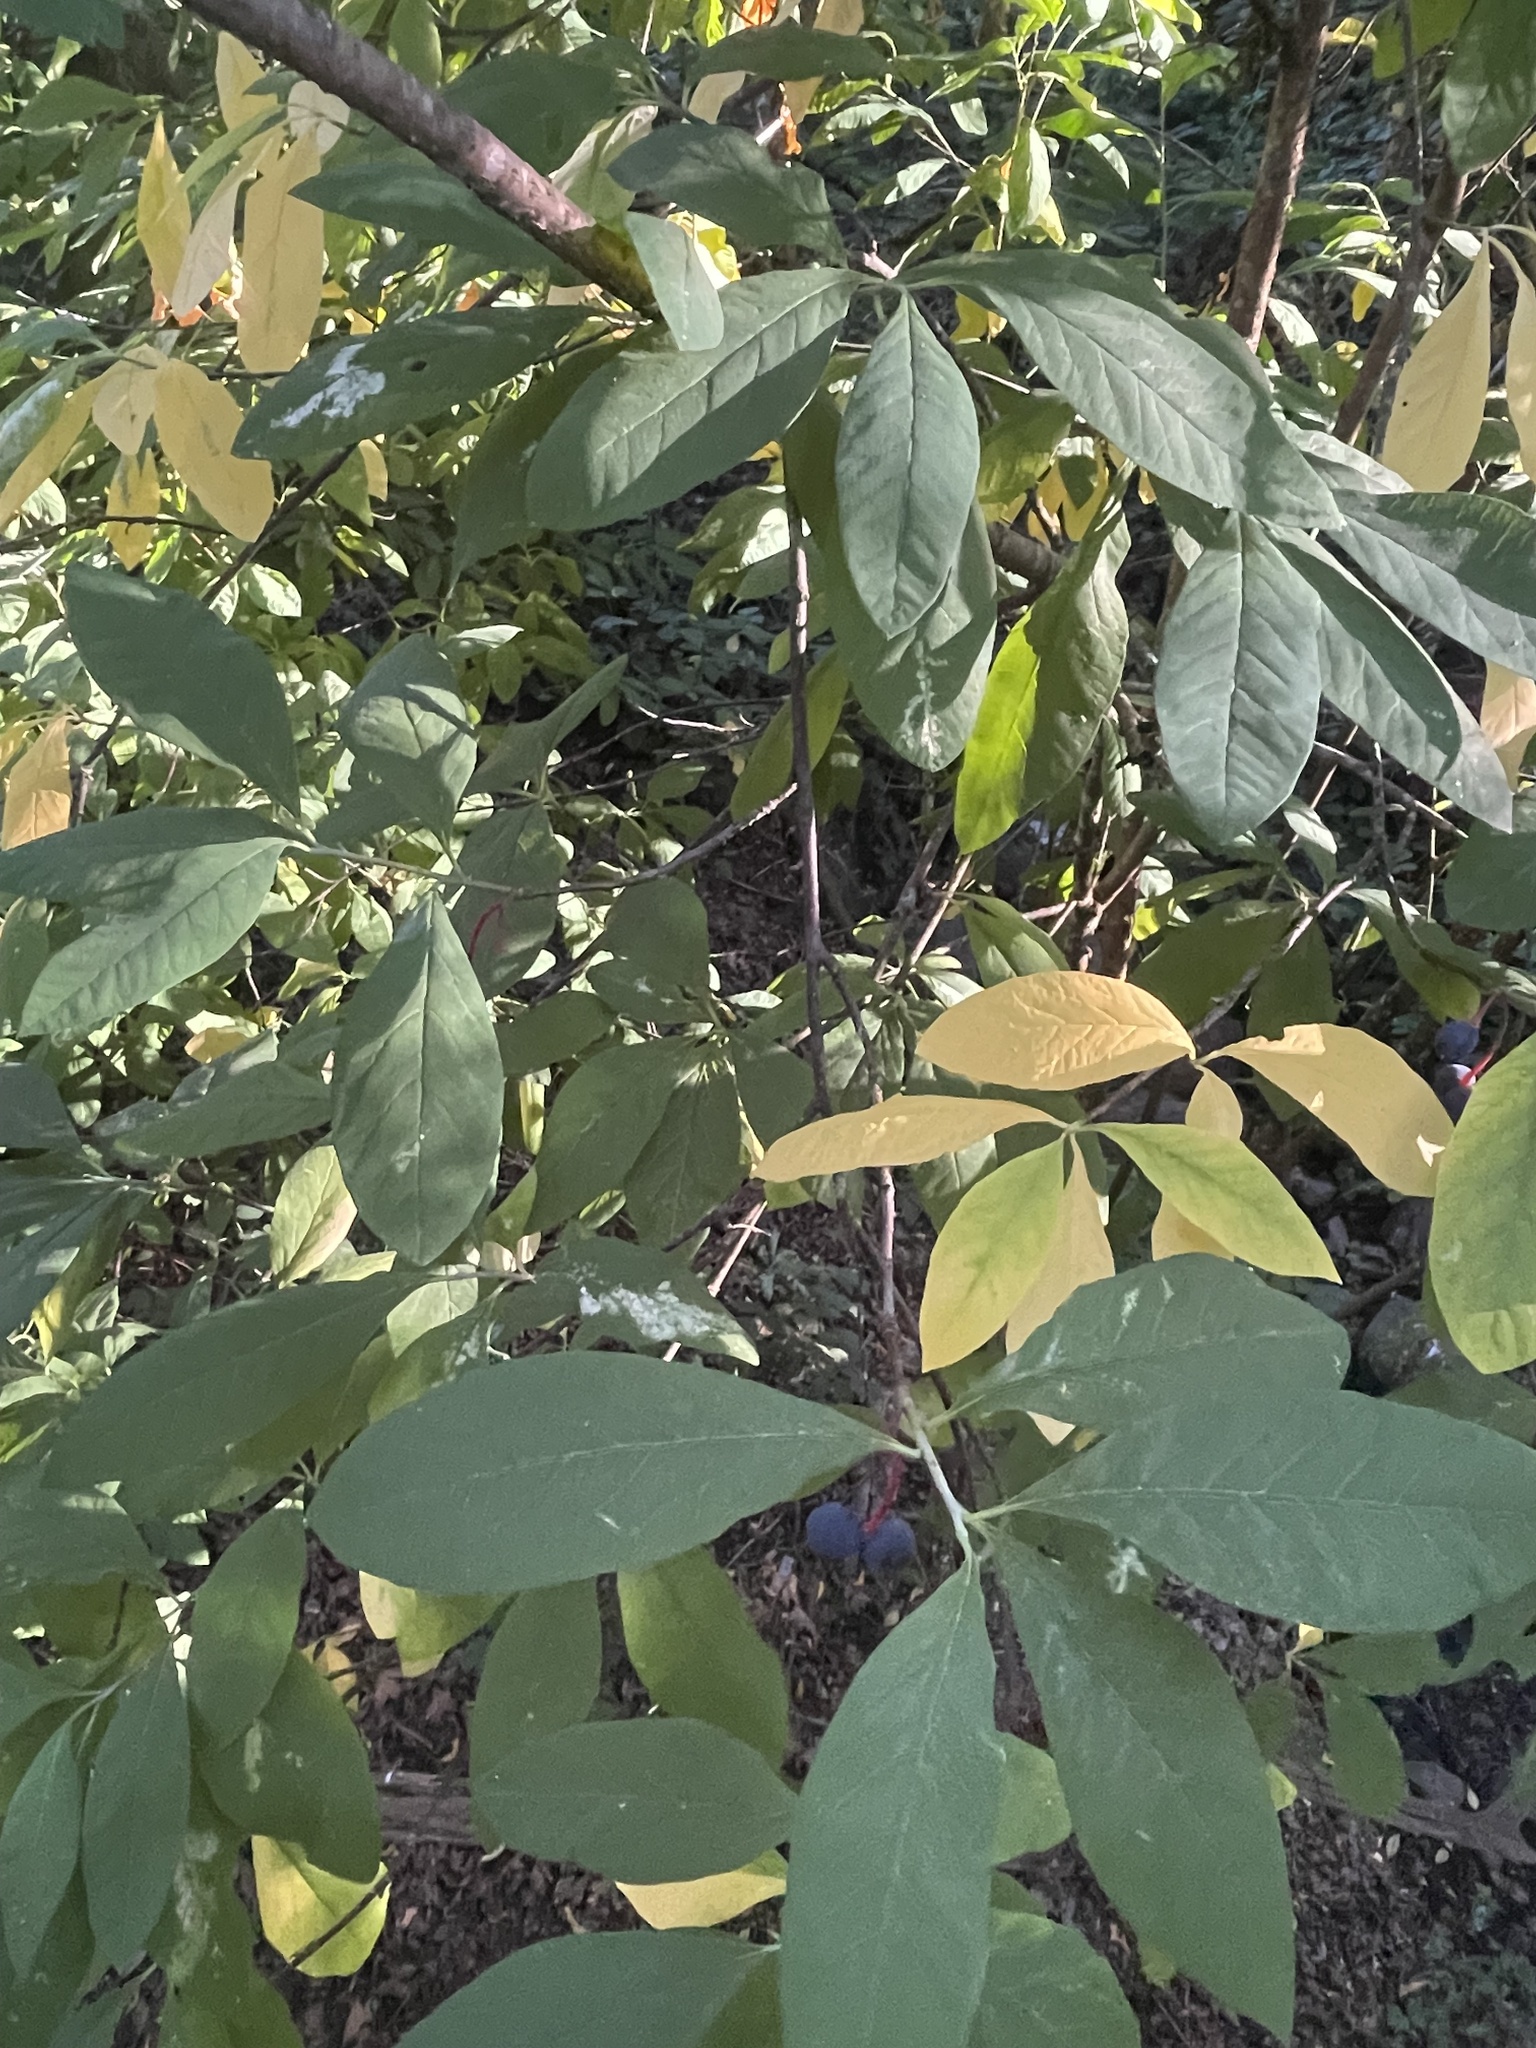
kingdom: Plantae
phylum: Tracheophyta
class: Magnoliopsida
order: Rosales
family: Rosaceae
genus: Oemleria
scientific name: Oemleria cerasiformis
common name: Osoberry
